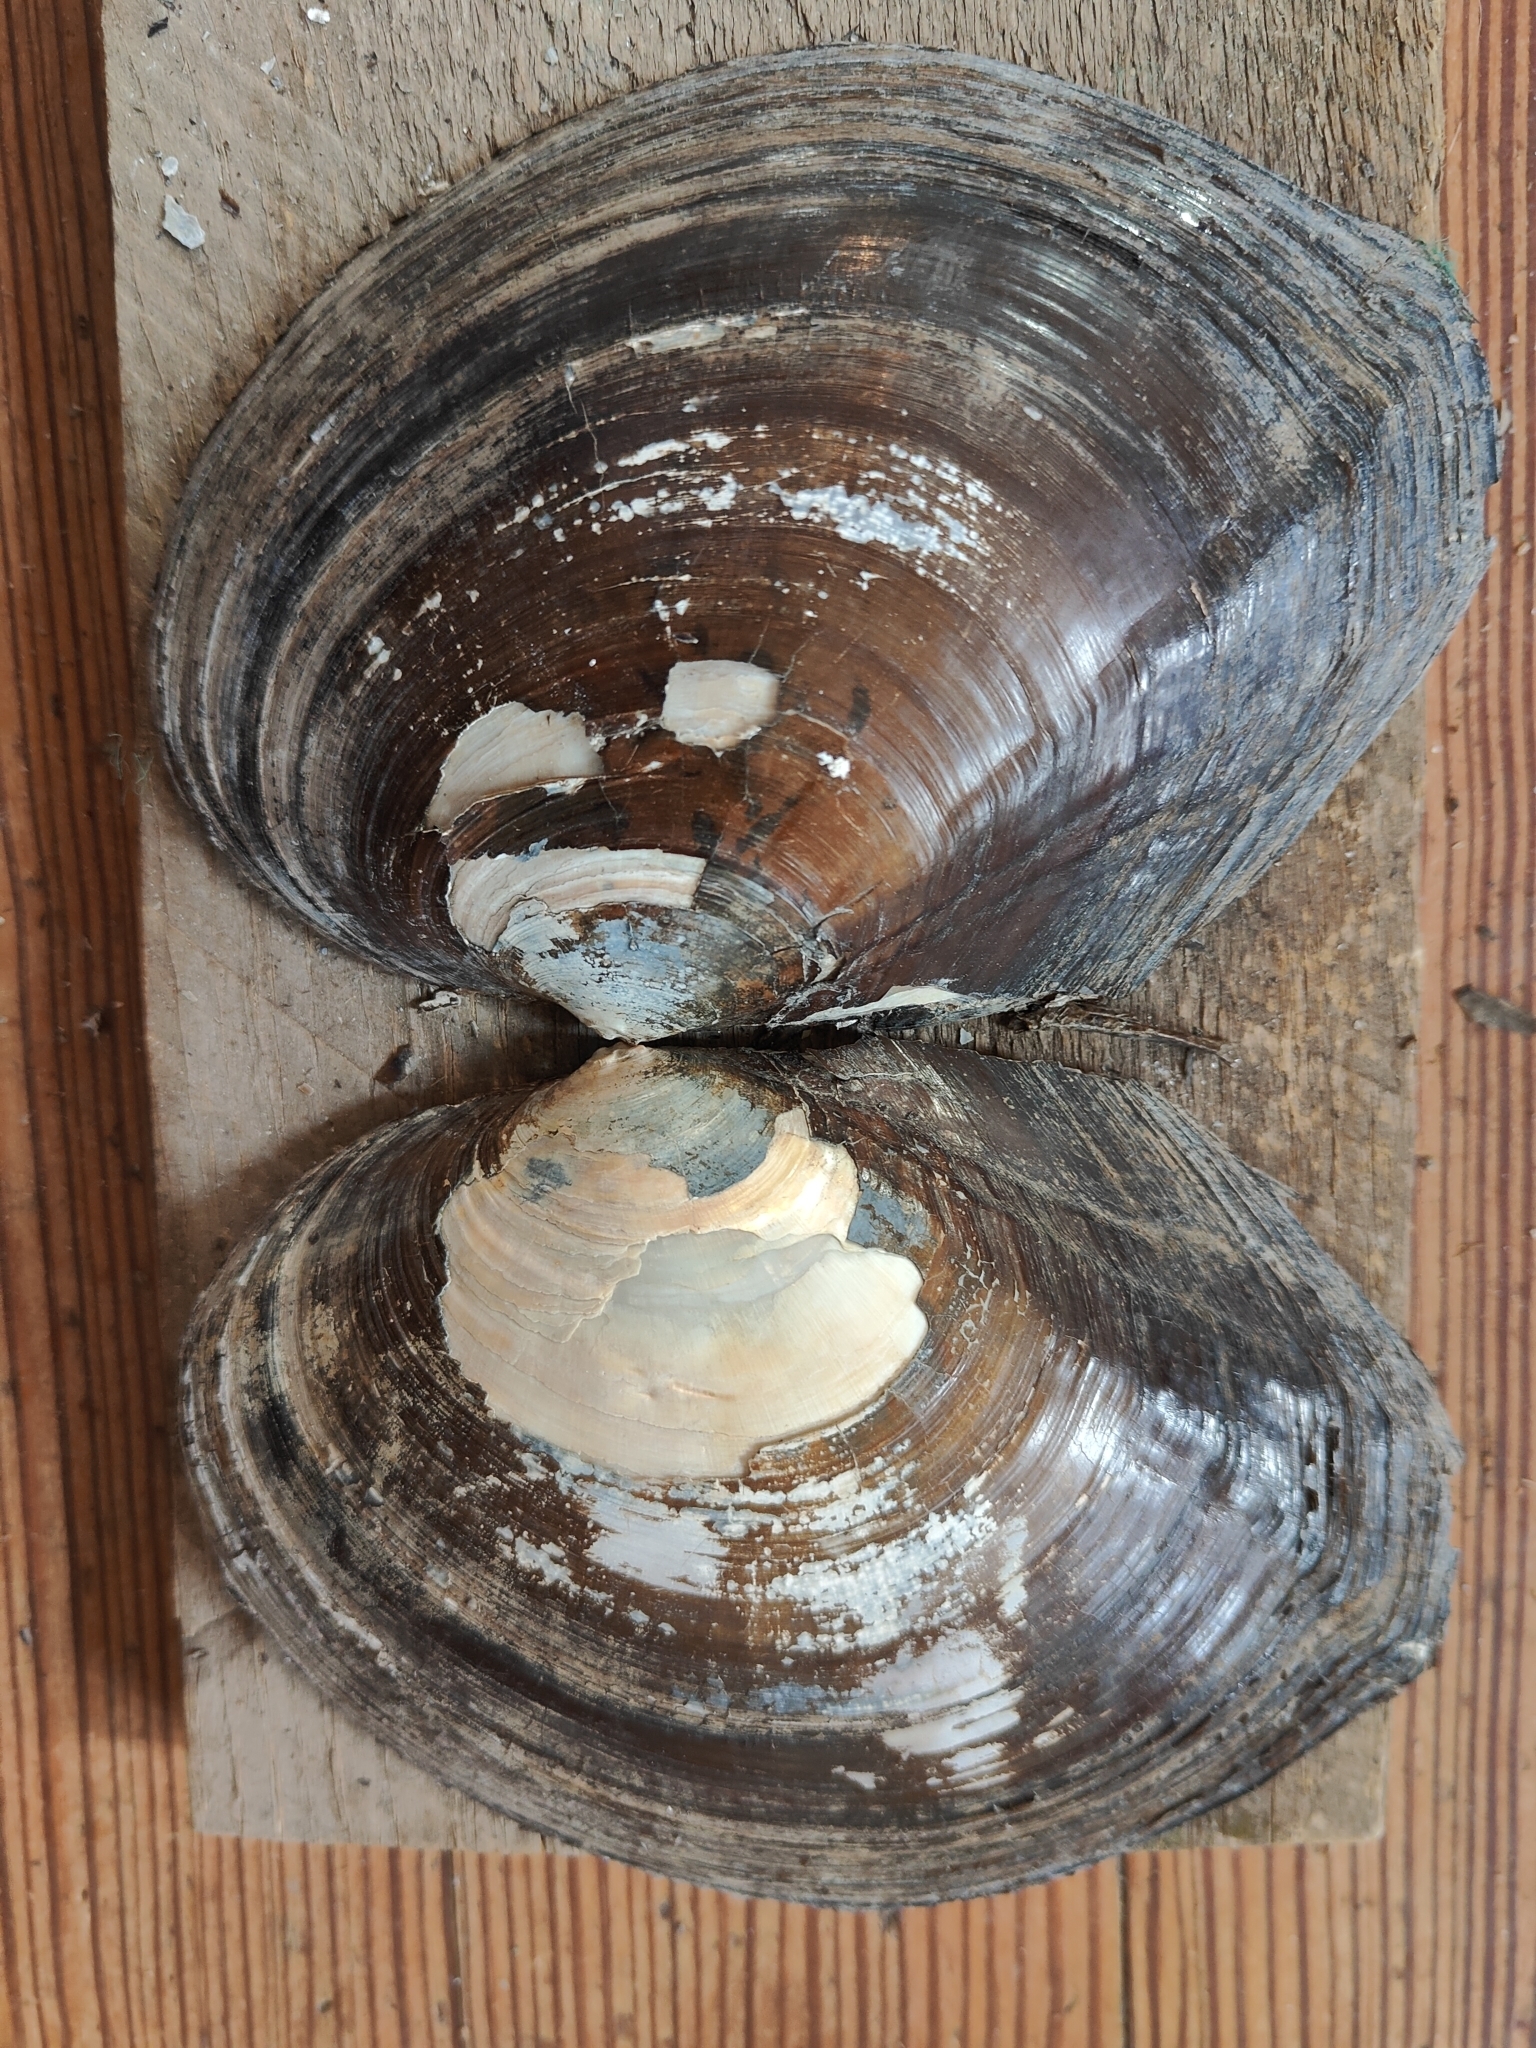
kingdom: Animalia
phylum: Mollusca
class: Bivalvia
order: Unionida
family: Unionidae
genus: Lasmigona
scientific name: Lasmigona complanata
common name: White heelsplitter
